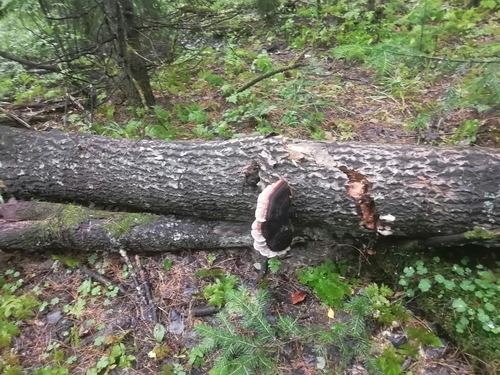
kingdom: Fungi
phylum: Basidiomycota
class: Agaricomycetes
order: Polyporales
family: Fomitopsidaceae
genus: Fomitopsis
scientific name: Fomitopsis pinicola
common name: Red-belted bracket
